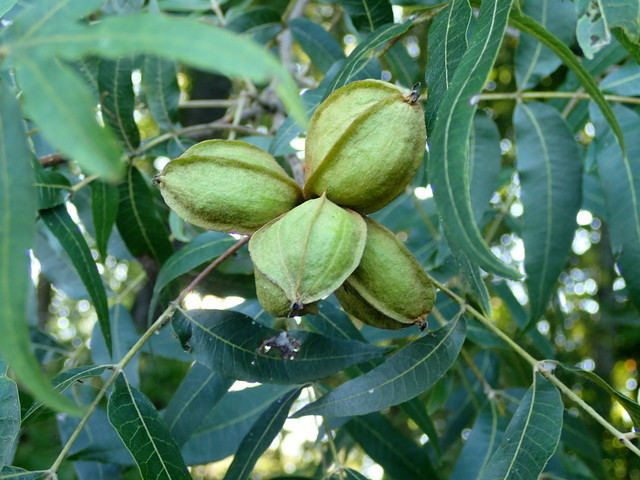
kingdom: Plantae
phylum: Tracheophyta
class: Magnoliopsida
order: Fagales
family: Juglandaceae
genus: Carya
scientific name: Carya illinoinensis
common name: Pecan
